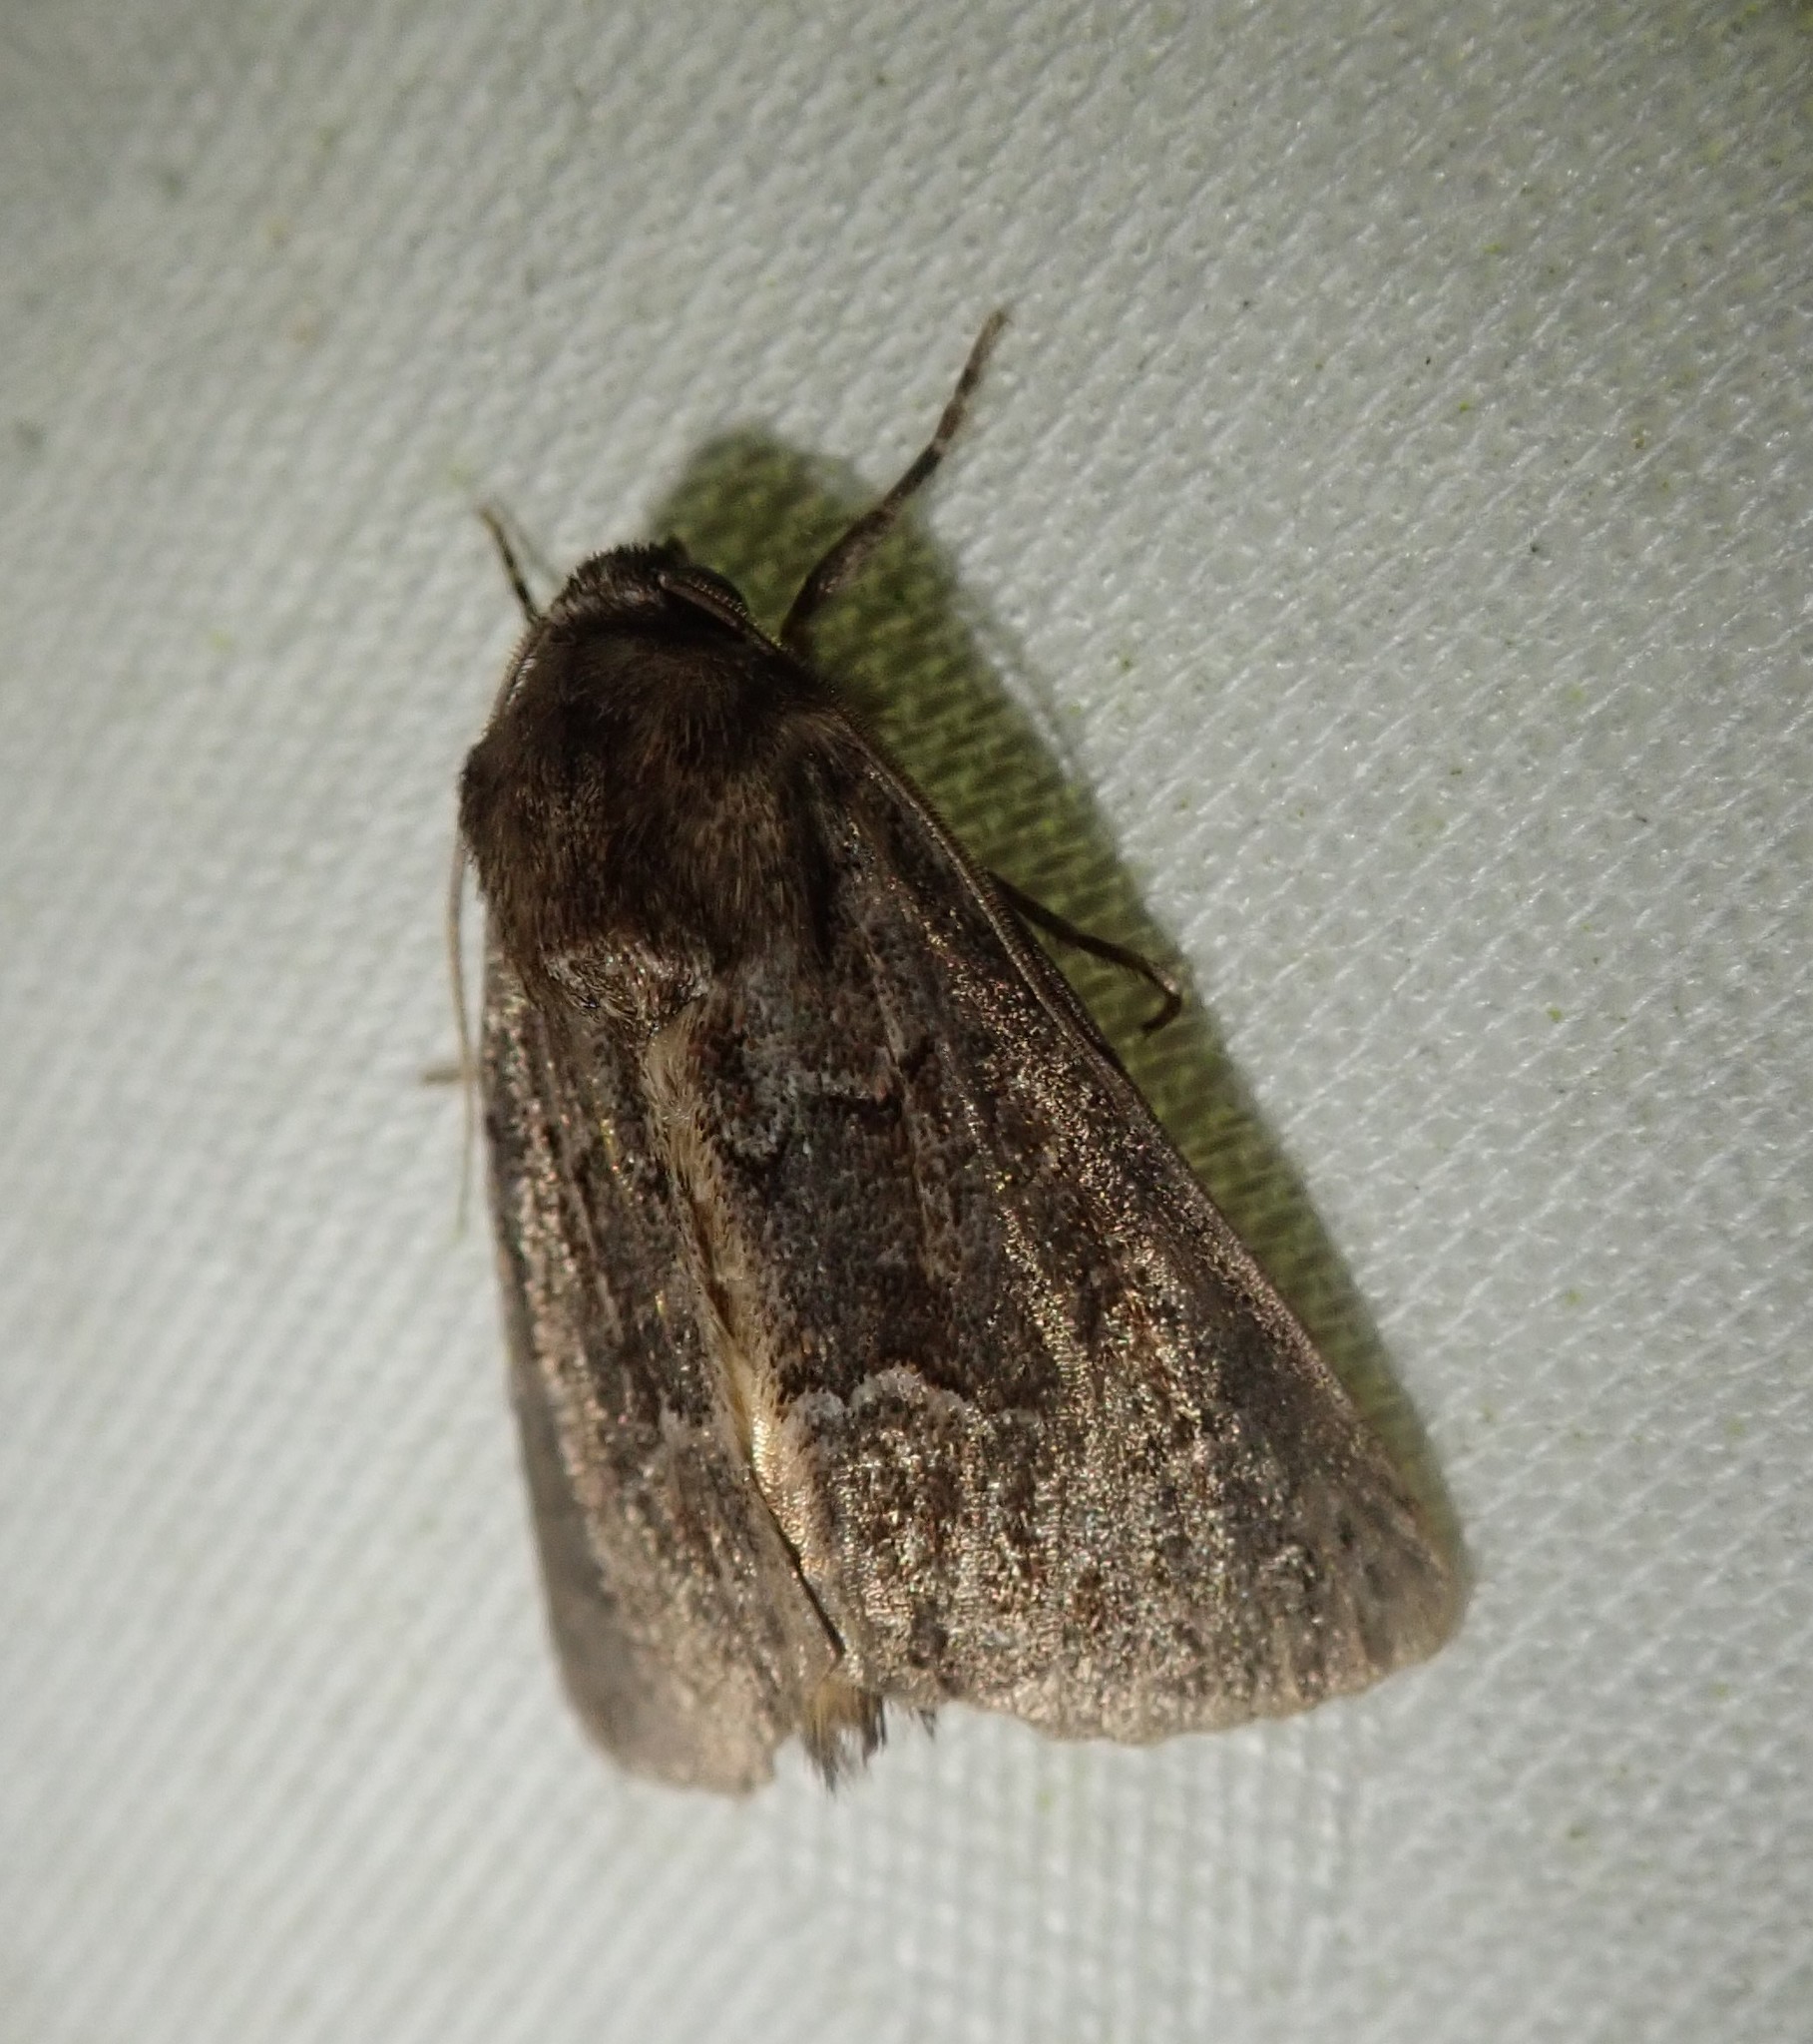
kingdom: Animalia
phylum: Arthropoda
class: Insecta
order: Lepidoptera
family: Noctuidae
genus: Thalpophila
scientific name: Thalpophila matura
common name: Straw underwing
